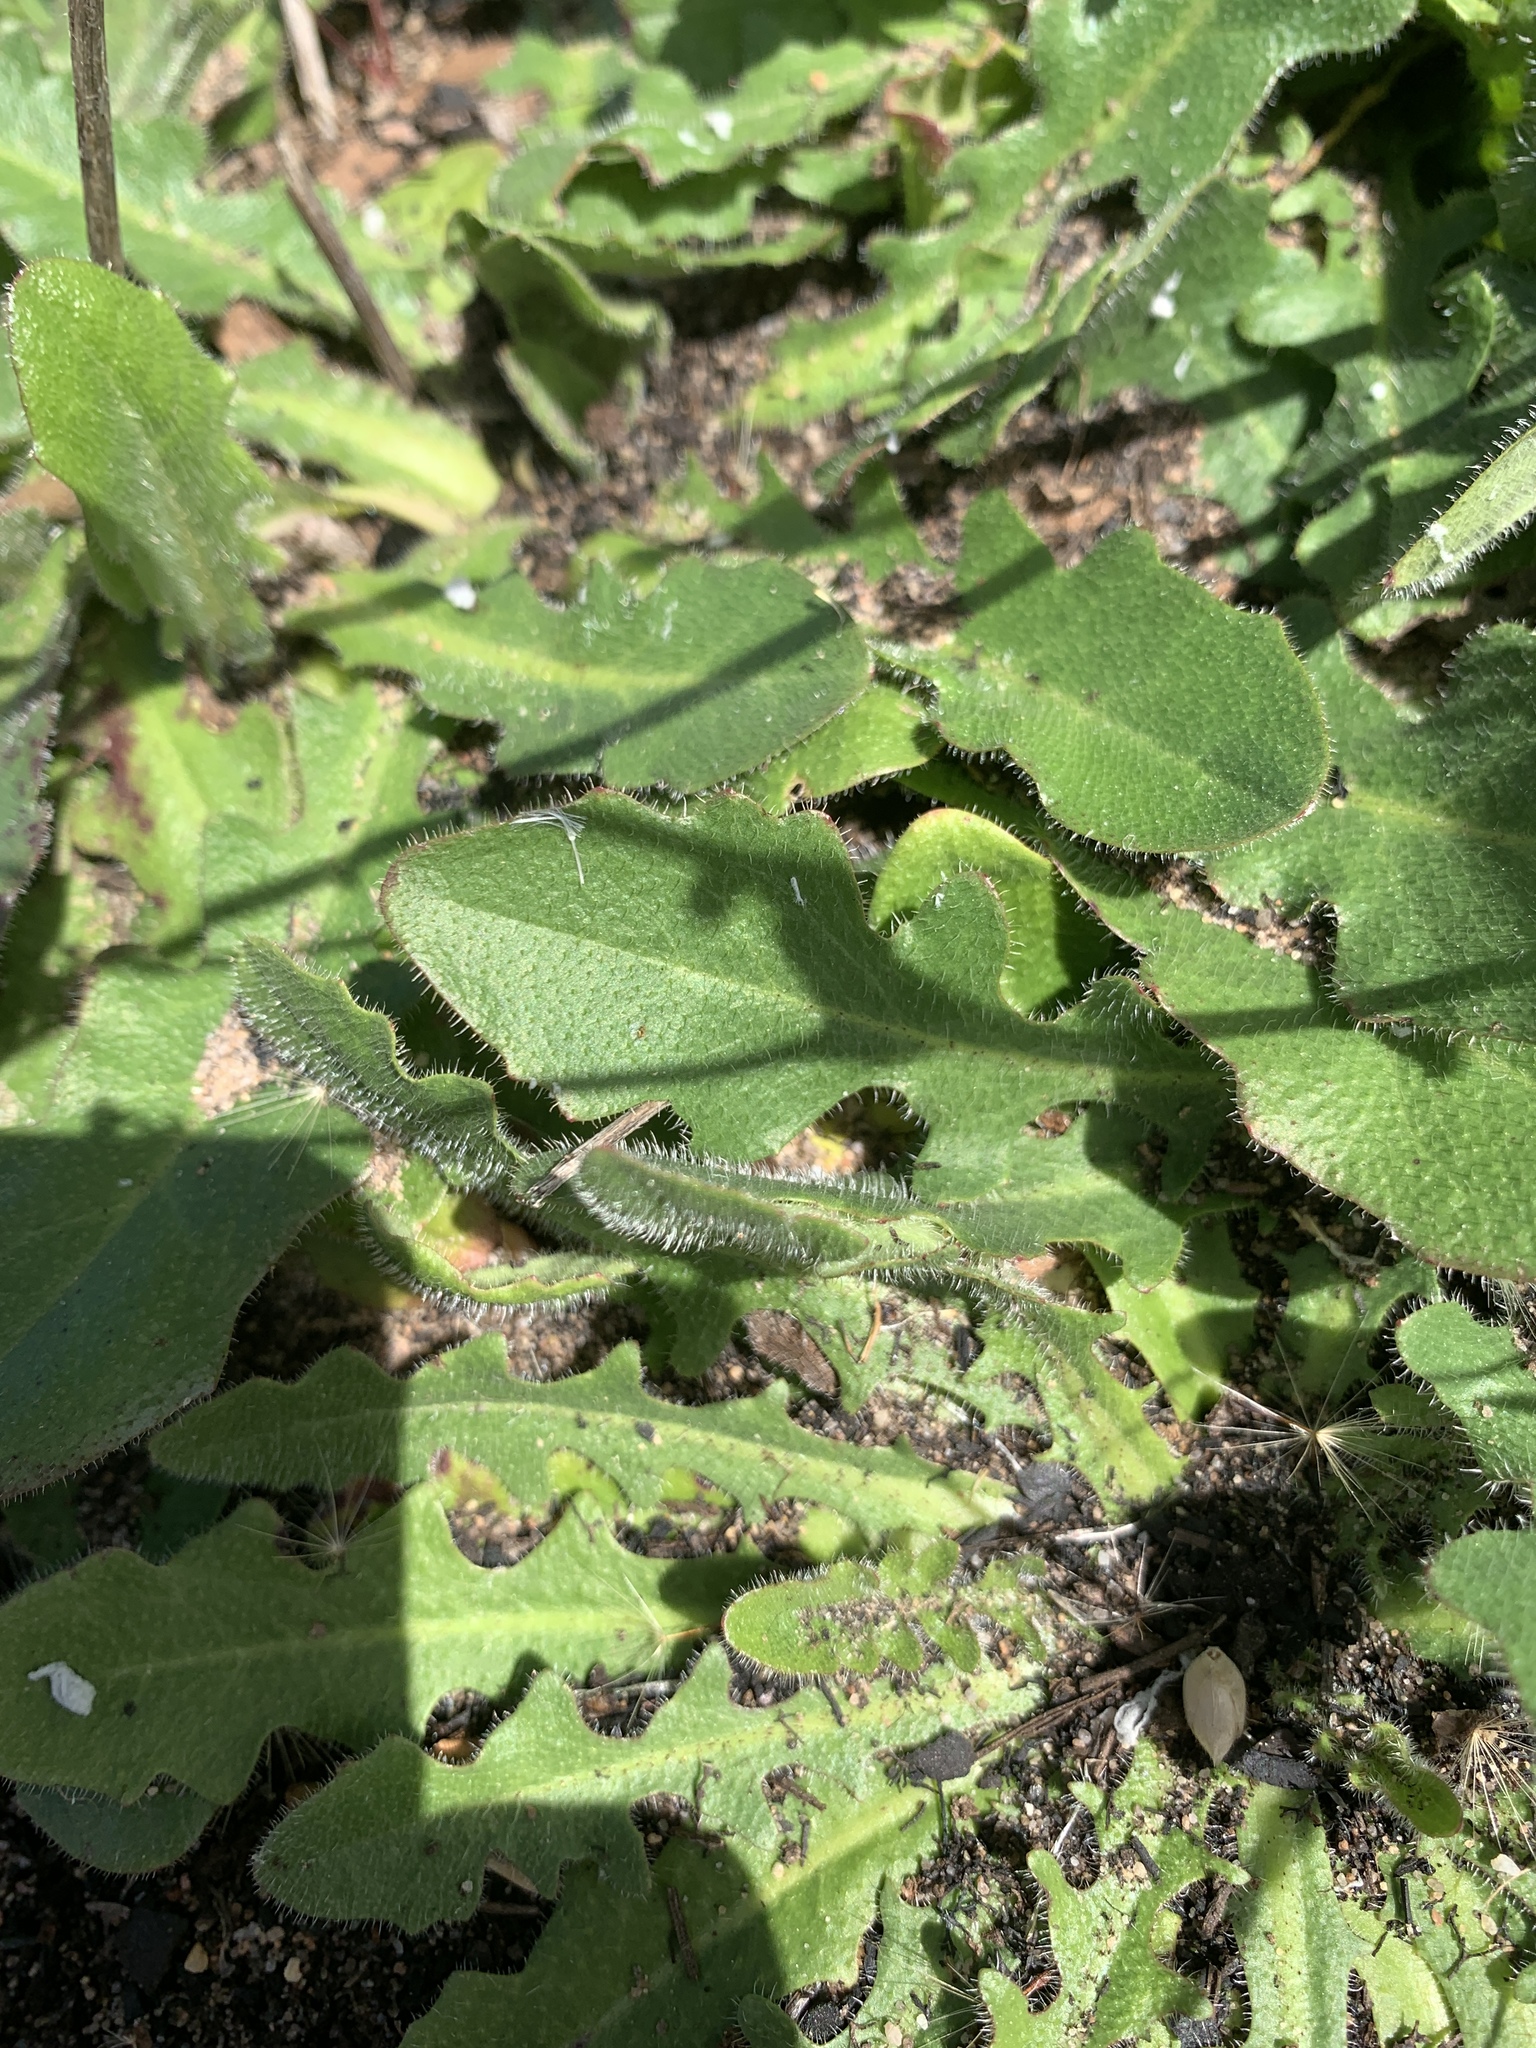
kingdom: Plantae
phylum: Tracheophyta
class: Magnoliopsida
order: Asterales
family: Asteraceae
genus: Hypochaeris
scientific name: Hypochaeris radicata
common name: Flatweed
